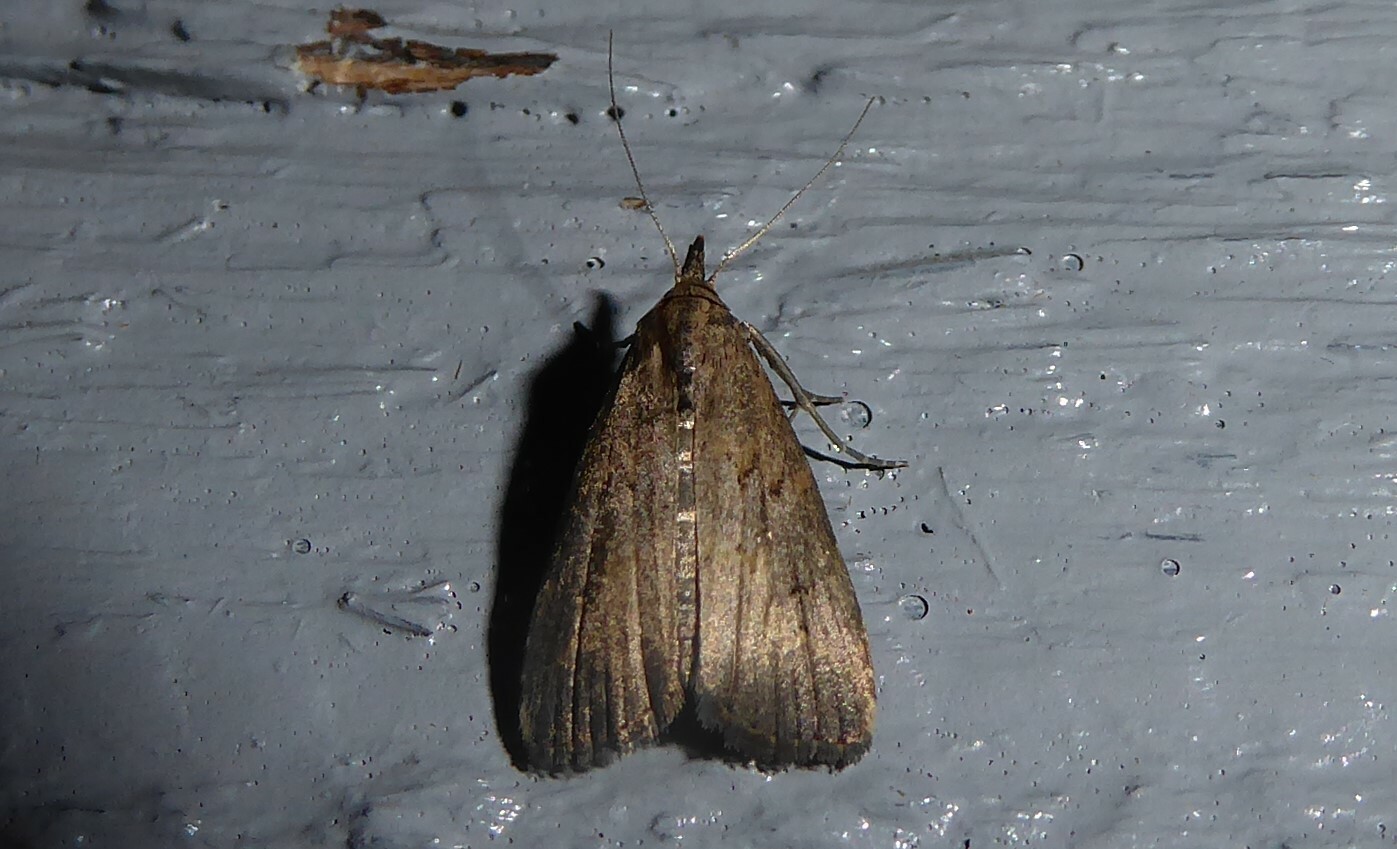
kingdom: Animalia
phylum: Arthropoda
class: Insecta
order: Lepidoptera
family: Erebidae
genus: Schrankia
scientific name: Schrankia costaestrigalis
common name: Pinion-streaked snout
